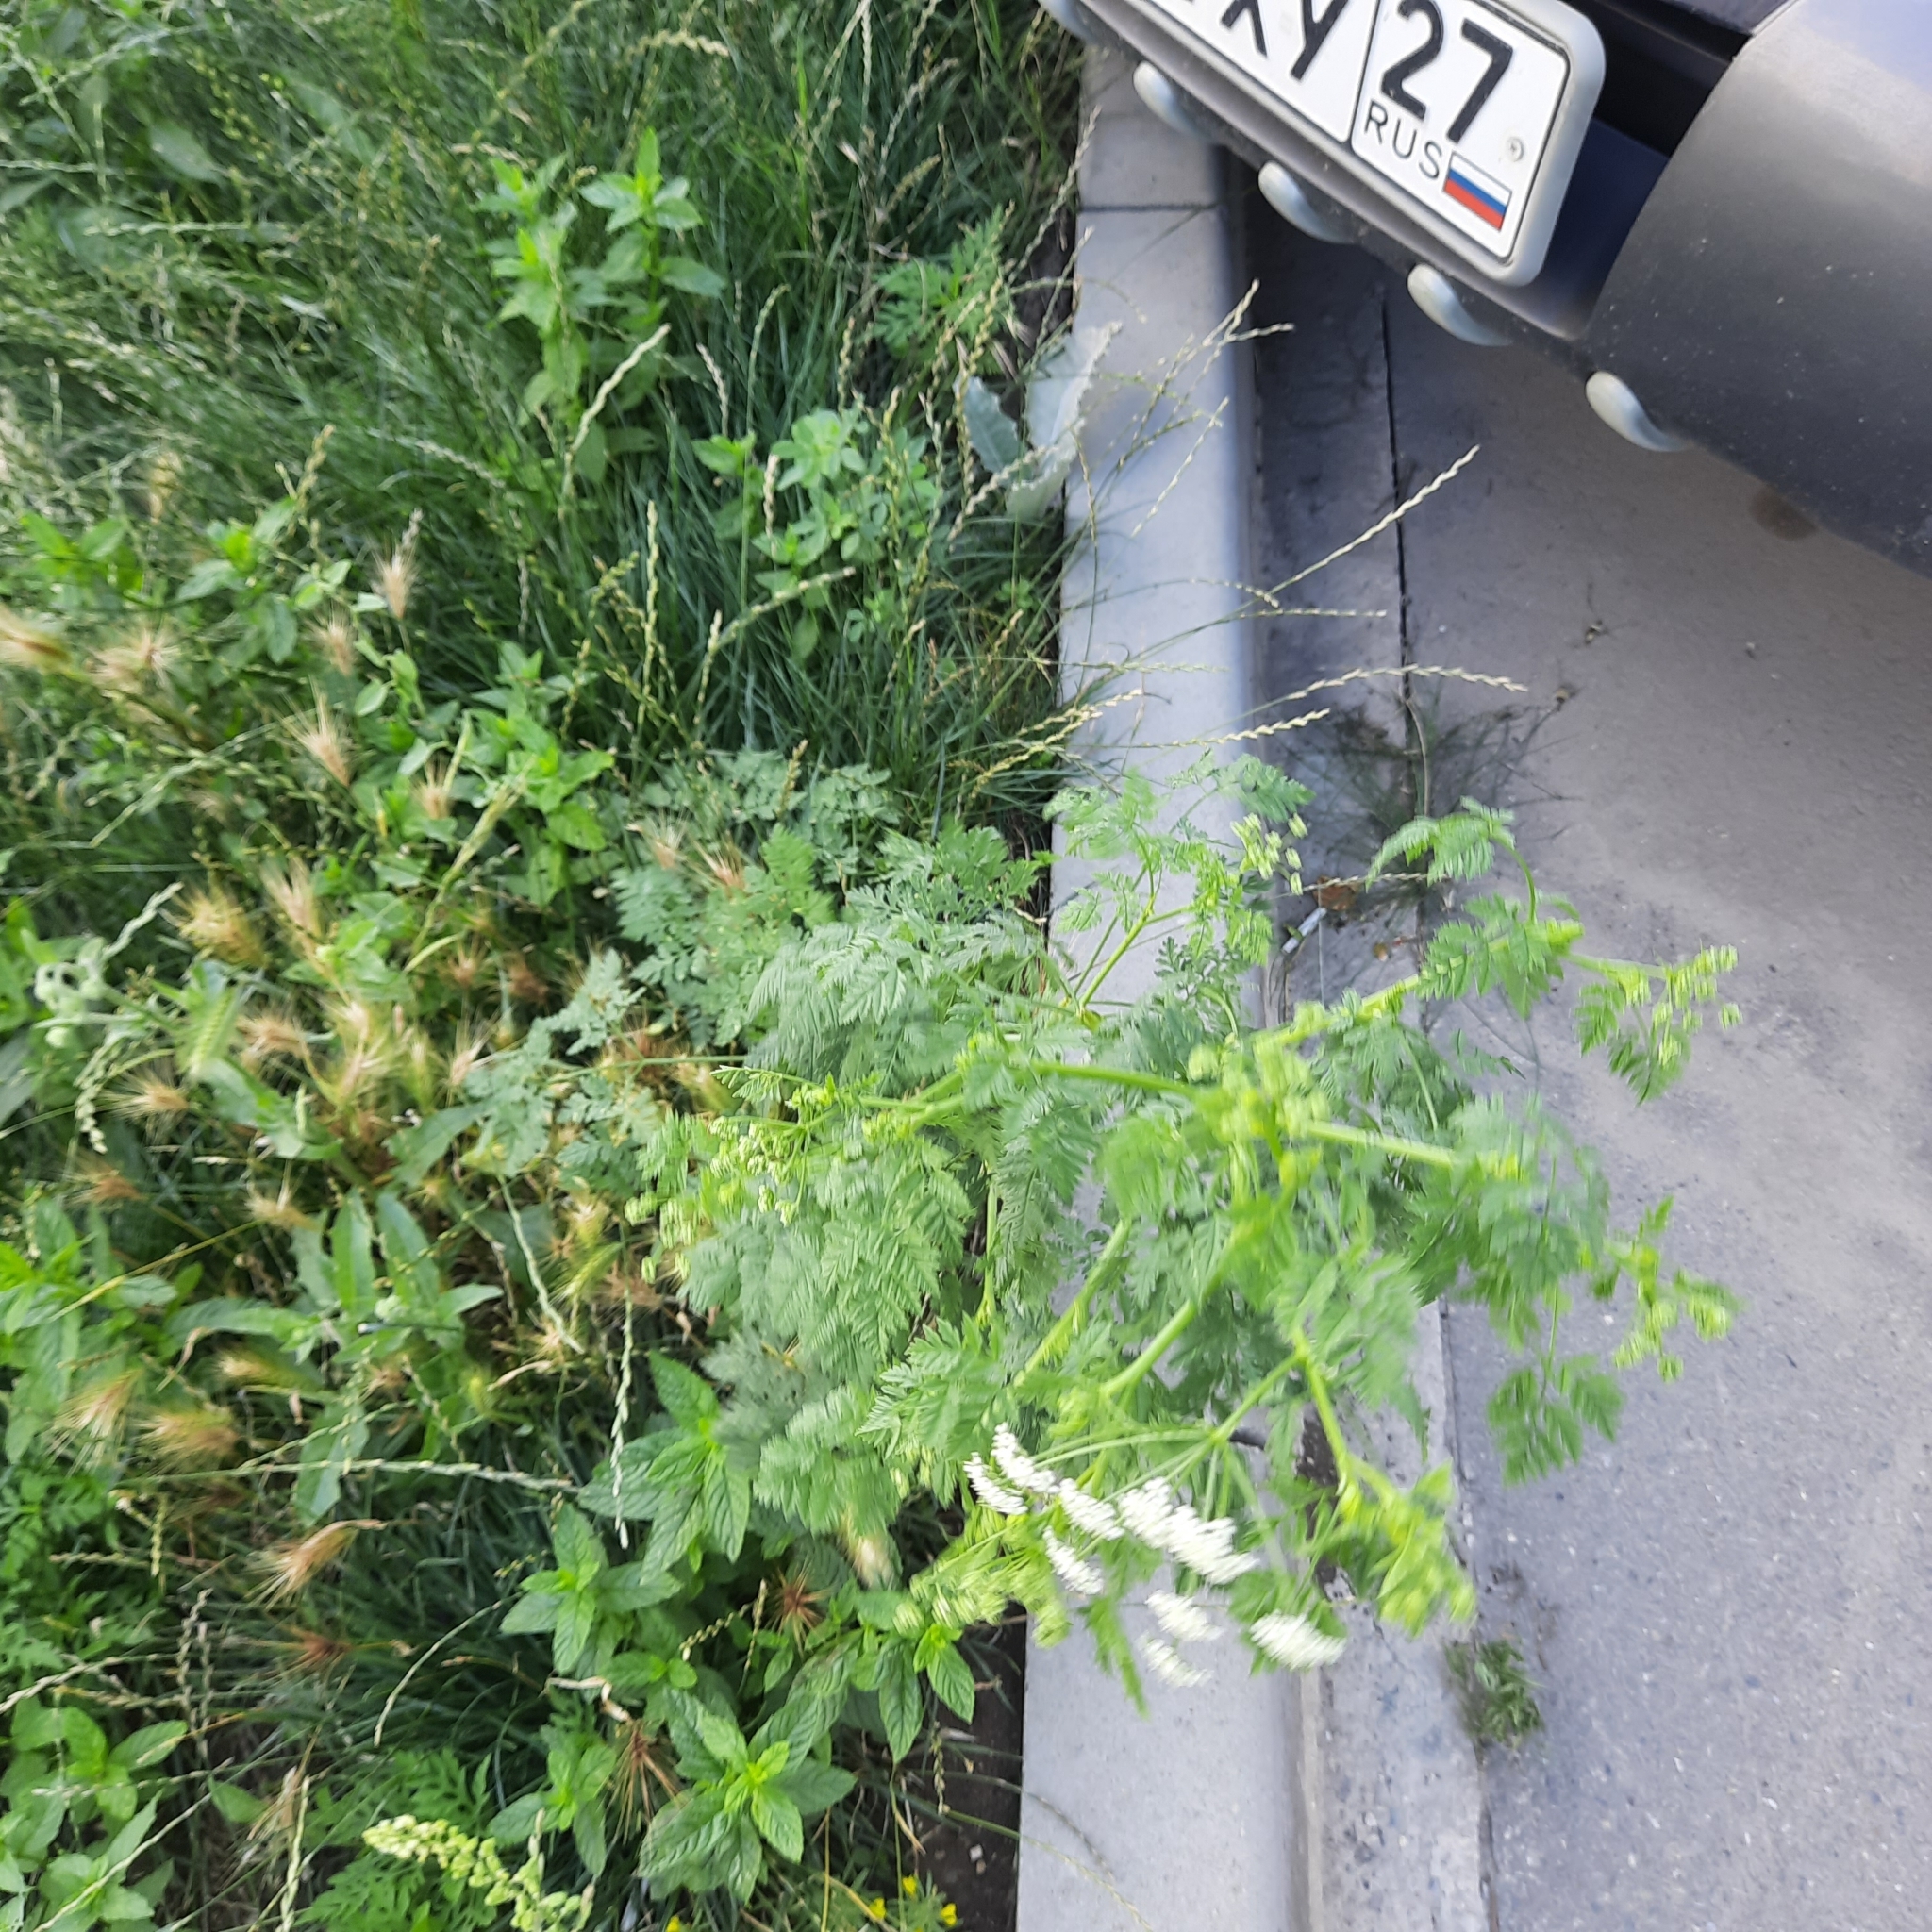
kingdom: Plantae
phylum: Tracheophyta
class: Magnoliopsida
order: Apiales
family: Apiaceae
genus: Conium
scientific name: Conium maculatum
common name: Hemlock
